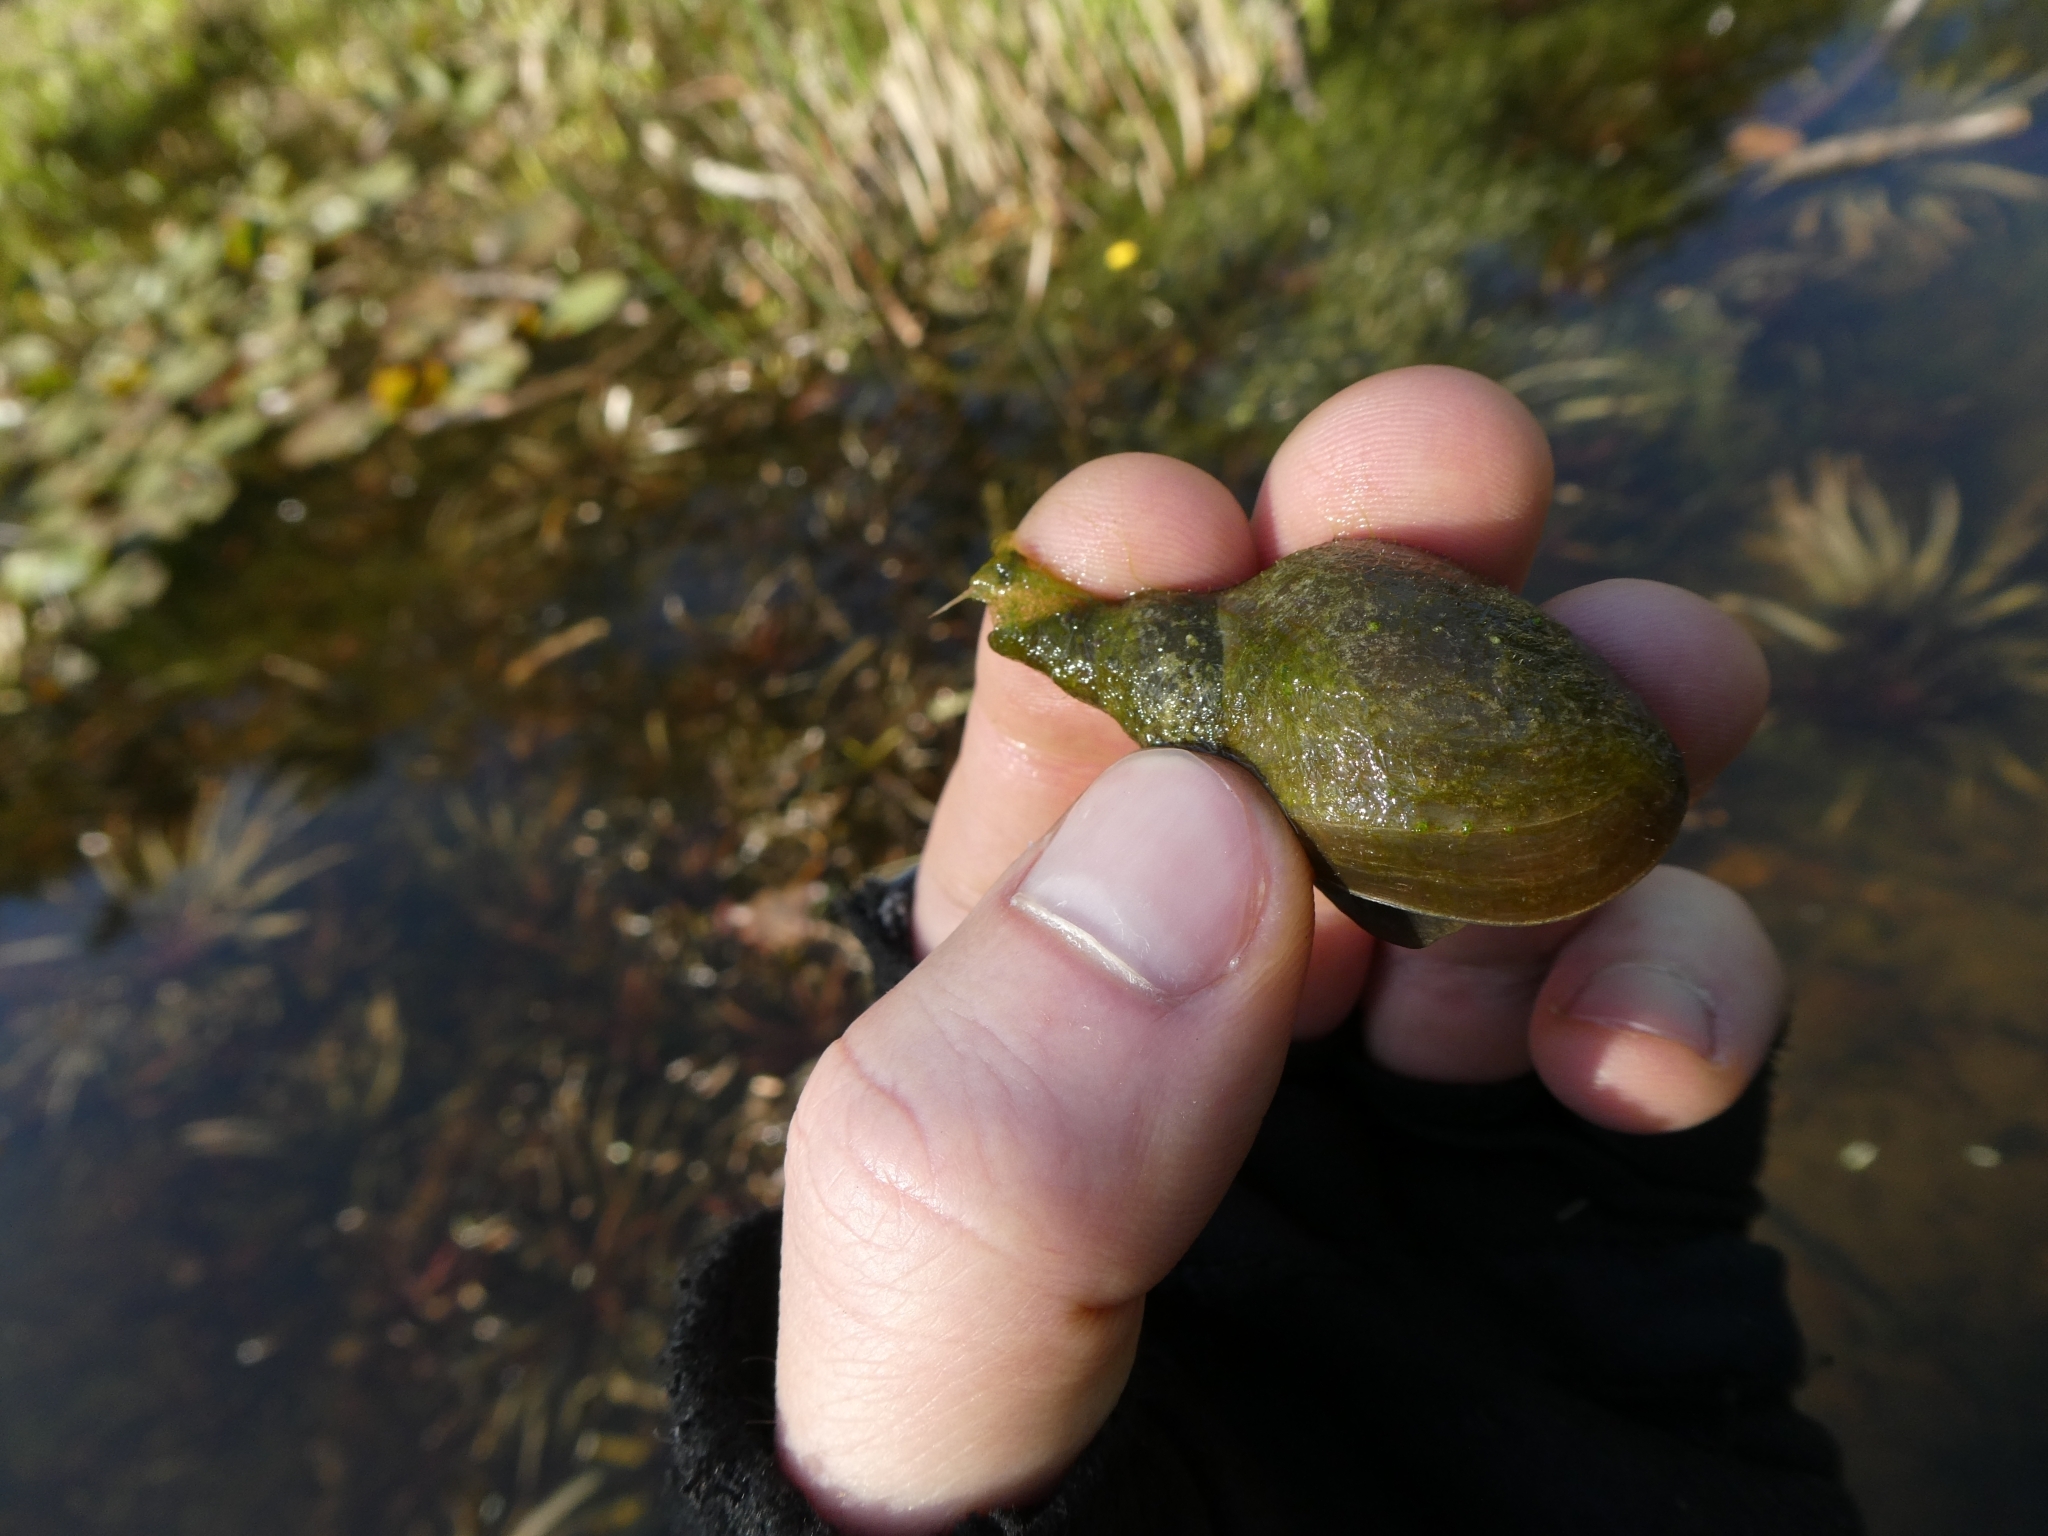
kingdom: Animalia
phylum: Mollusca
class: Gastropoda
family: Lymnaeidae
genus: Lymnaea
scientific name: Lymnaea stagnalis
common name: Great pond snail
